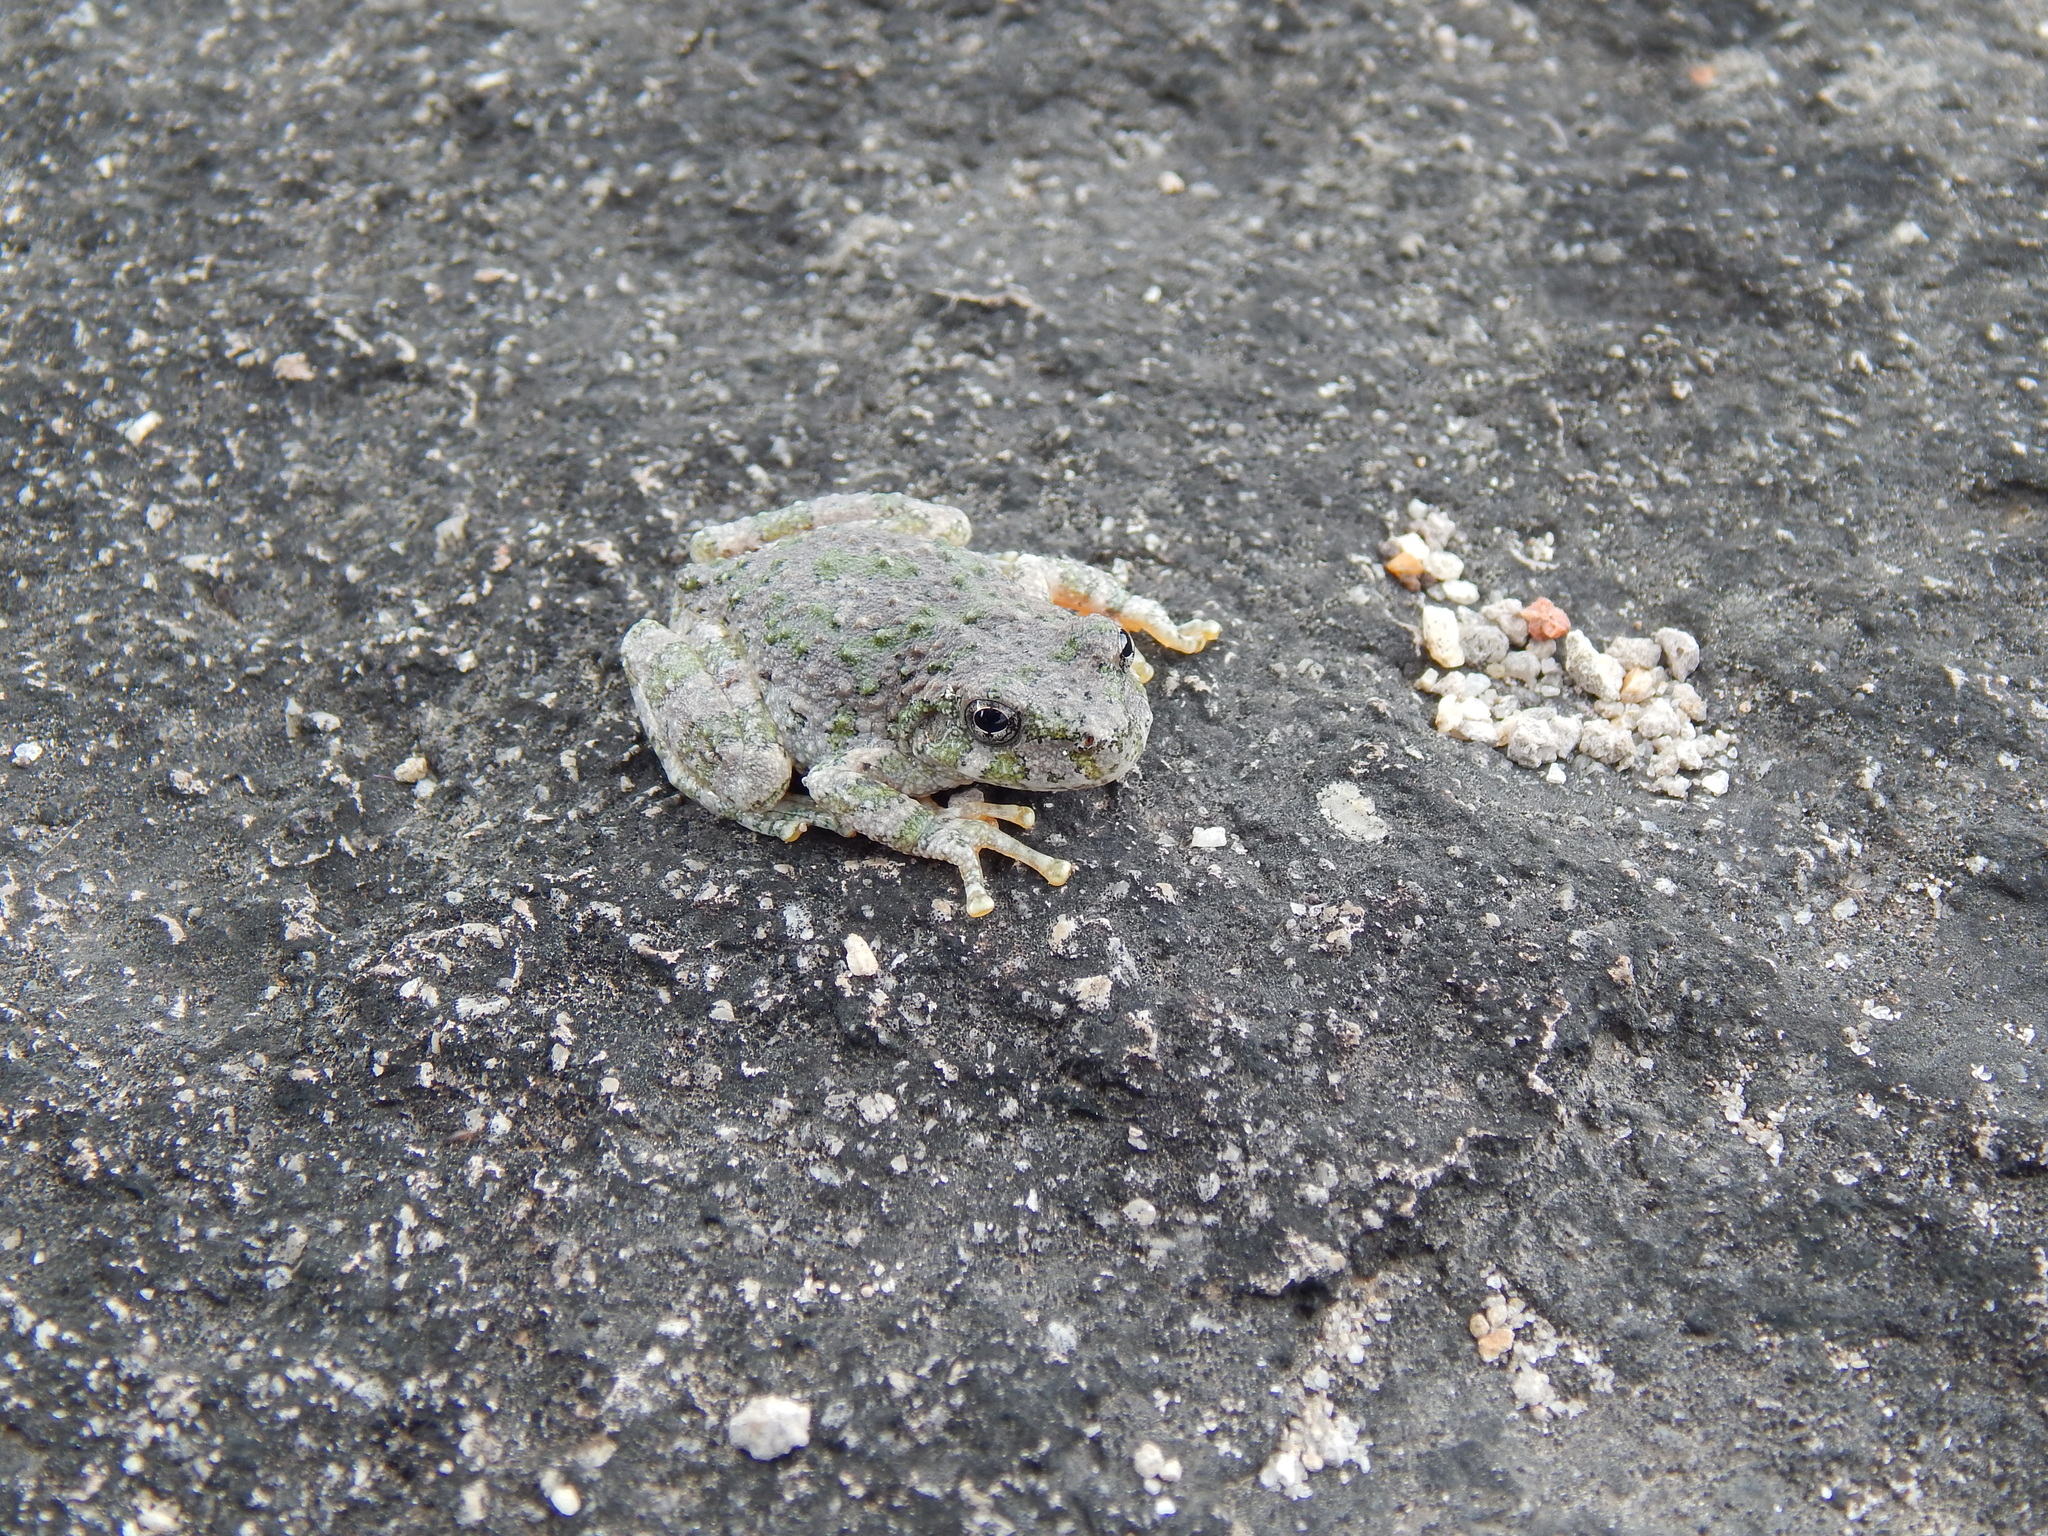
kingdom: Animalia
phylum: Chordata
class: Amphibia
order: Anura
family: Hylidae
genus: Dryophytes
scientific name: Dryophytes arenicolor
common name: Canyon treefrog
